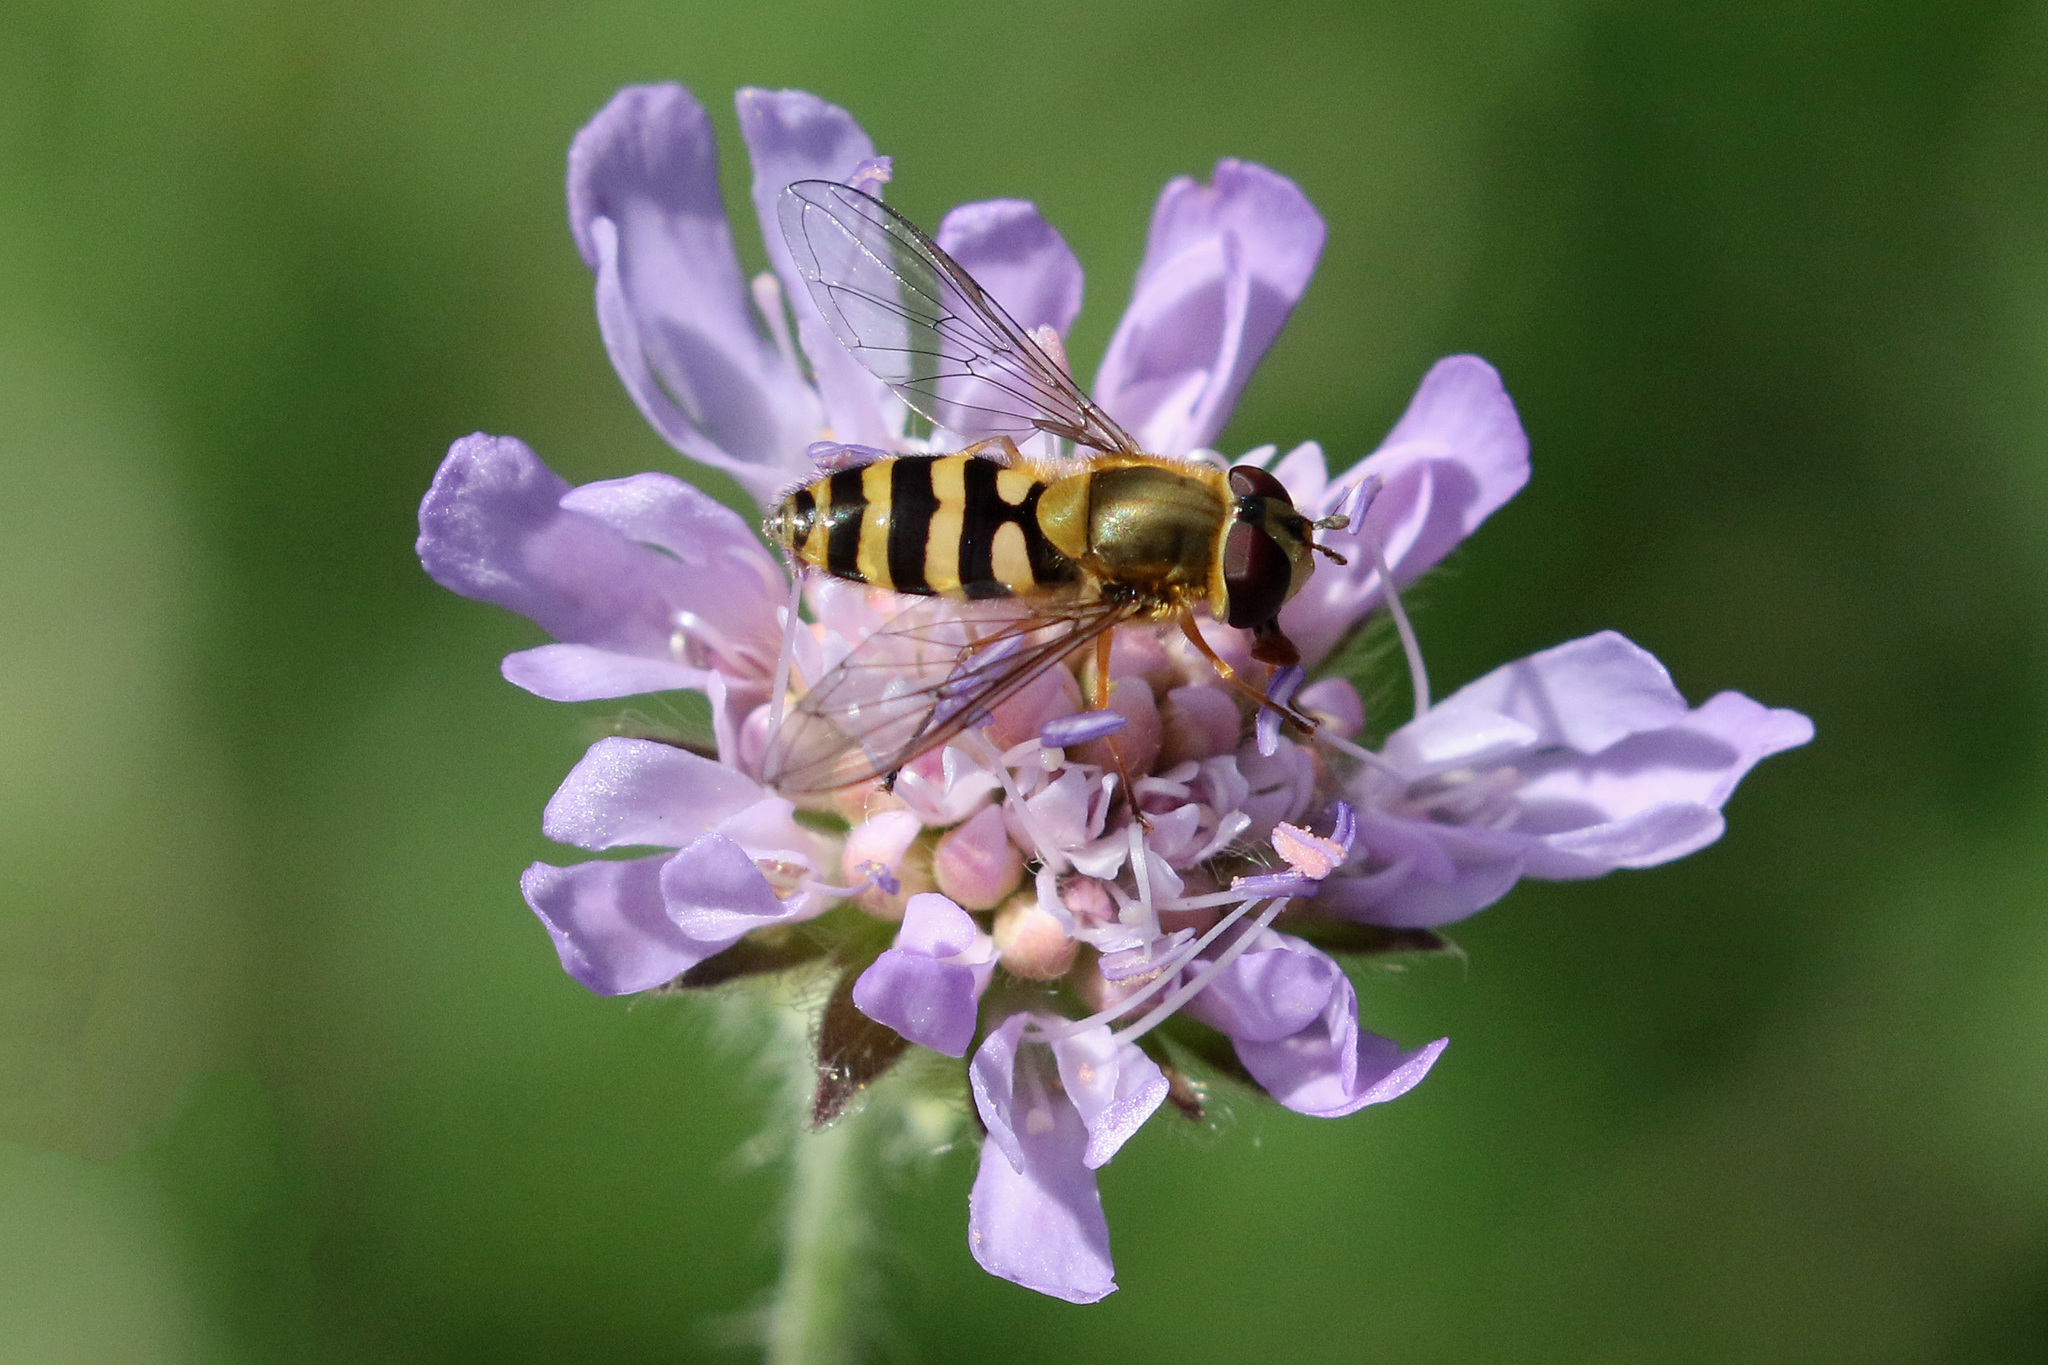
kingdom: Animalia
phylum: Arthropoda
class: Insecta
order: Diptera
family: Syrphidae
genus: Syrphus
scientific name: Syrphus ribesii
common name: Common flower fly
